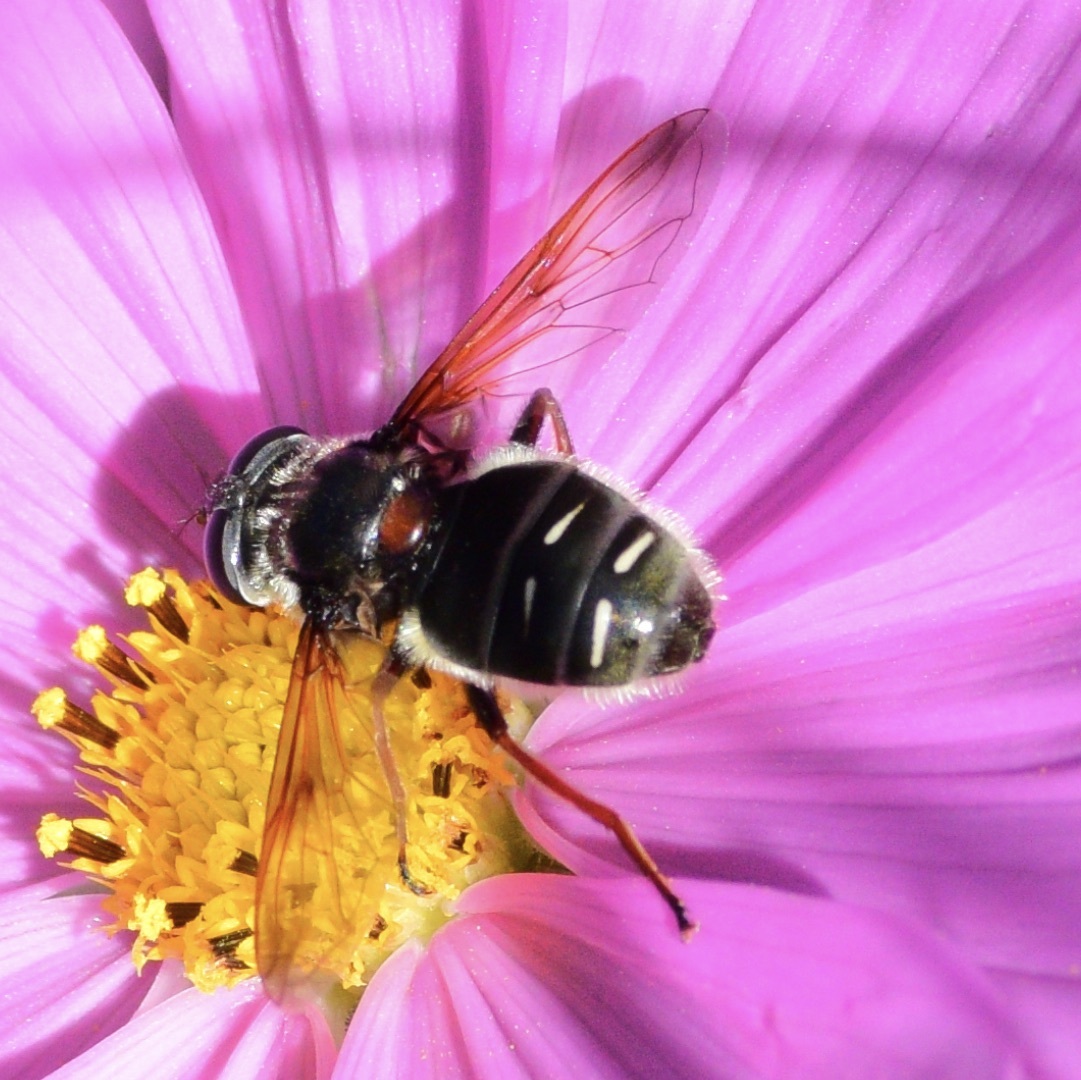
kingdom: Animalia
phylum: Arthropoda
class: Insecta
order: Diptera
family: Syrphidae
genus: Sericomyia
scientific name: Sericomyia militaris
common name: Narrow-banded pond fly
